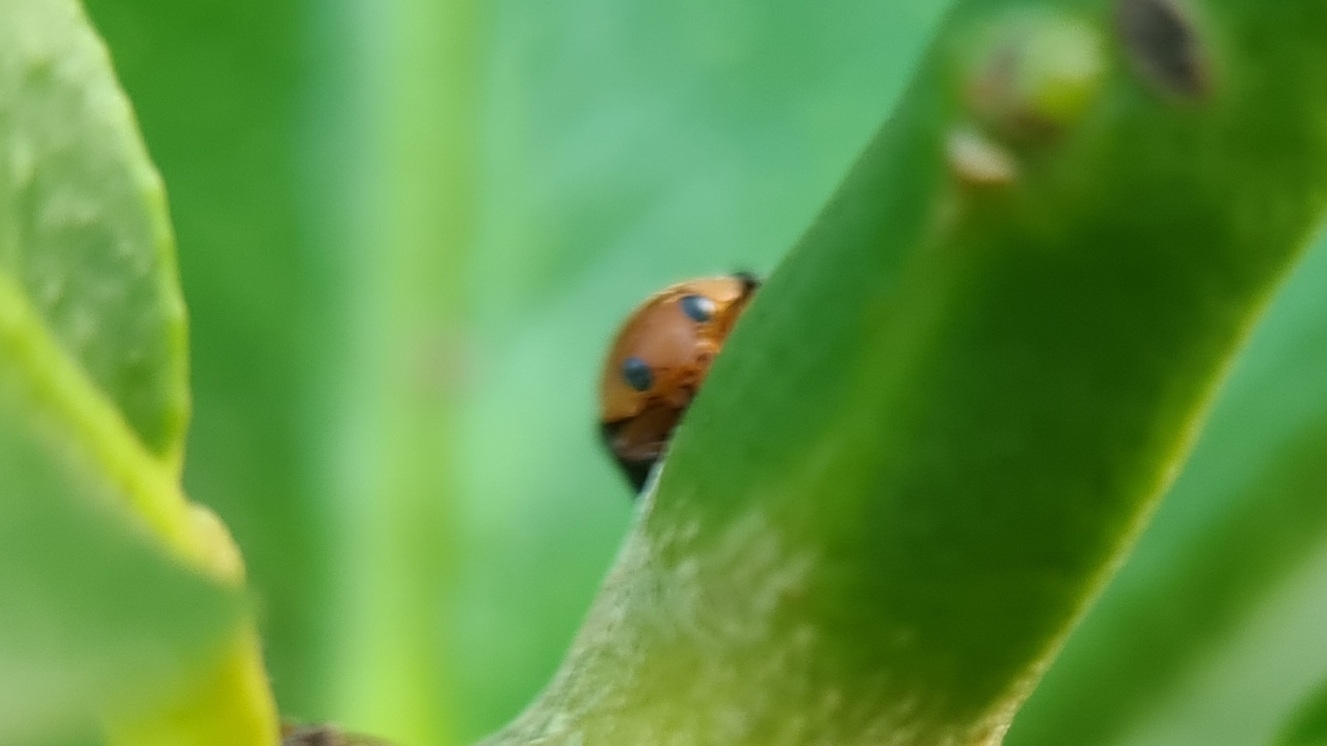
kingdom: Animalia
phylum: Arthropoda
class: Insecta
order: Coleoptera
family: Coccinellidae
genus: Cryptolaemus
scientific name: Cryptolaemus montrouzieri
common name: Mealybug destroyer
